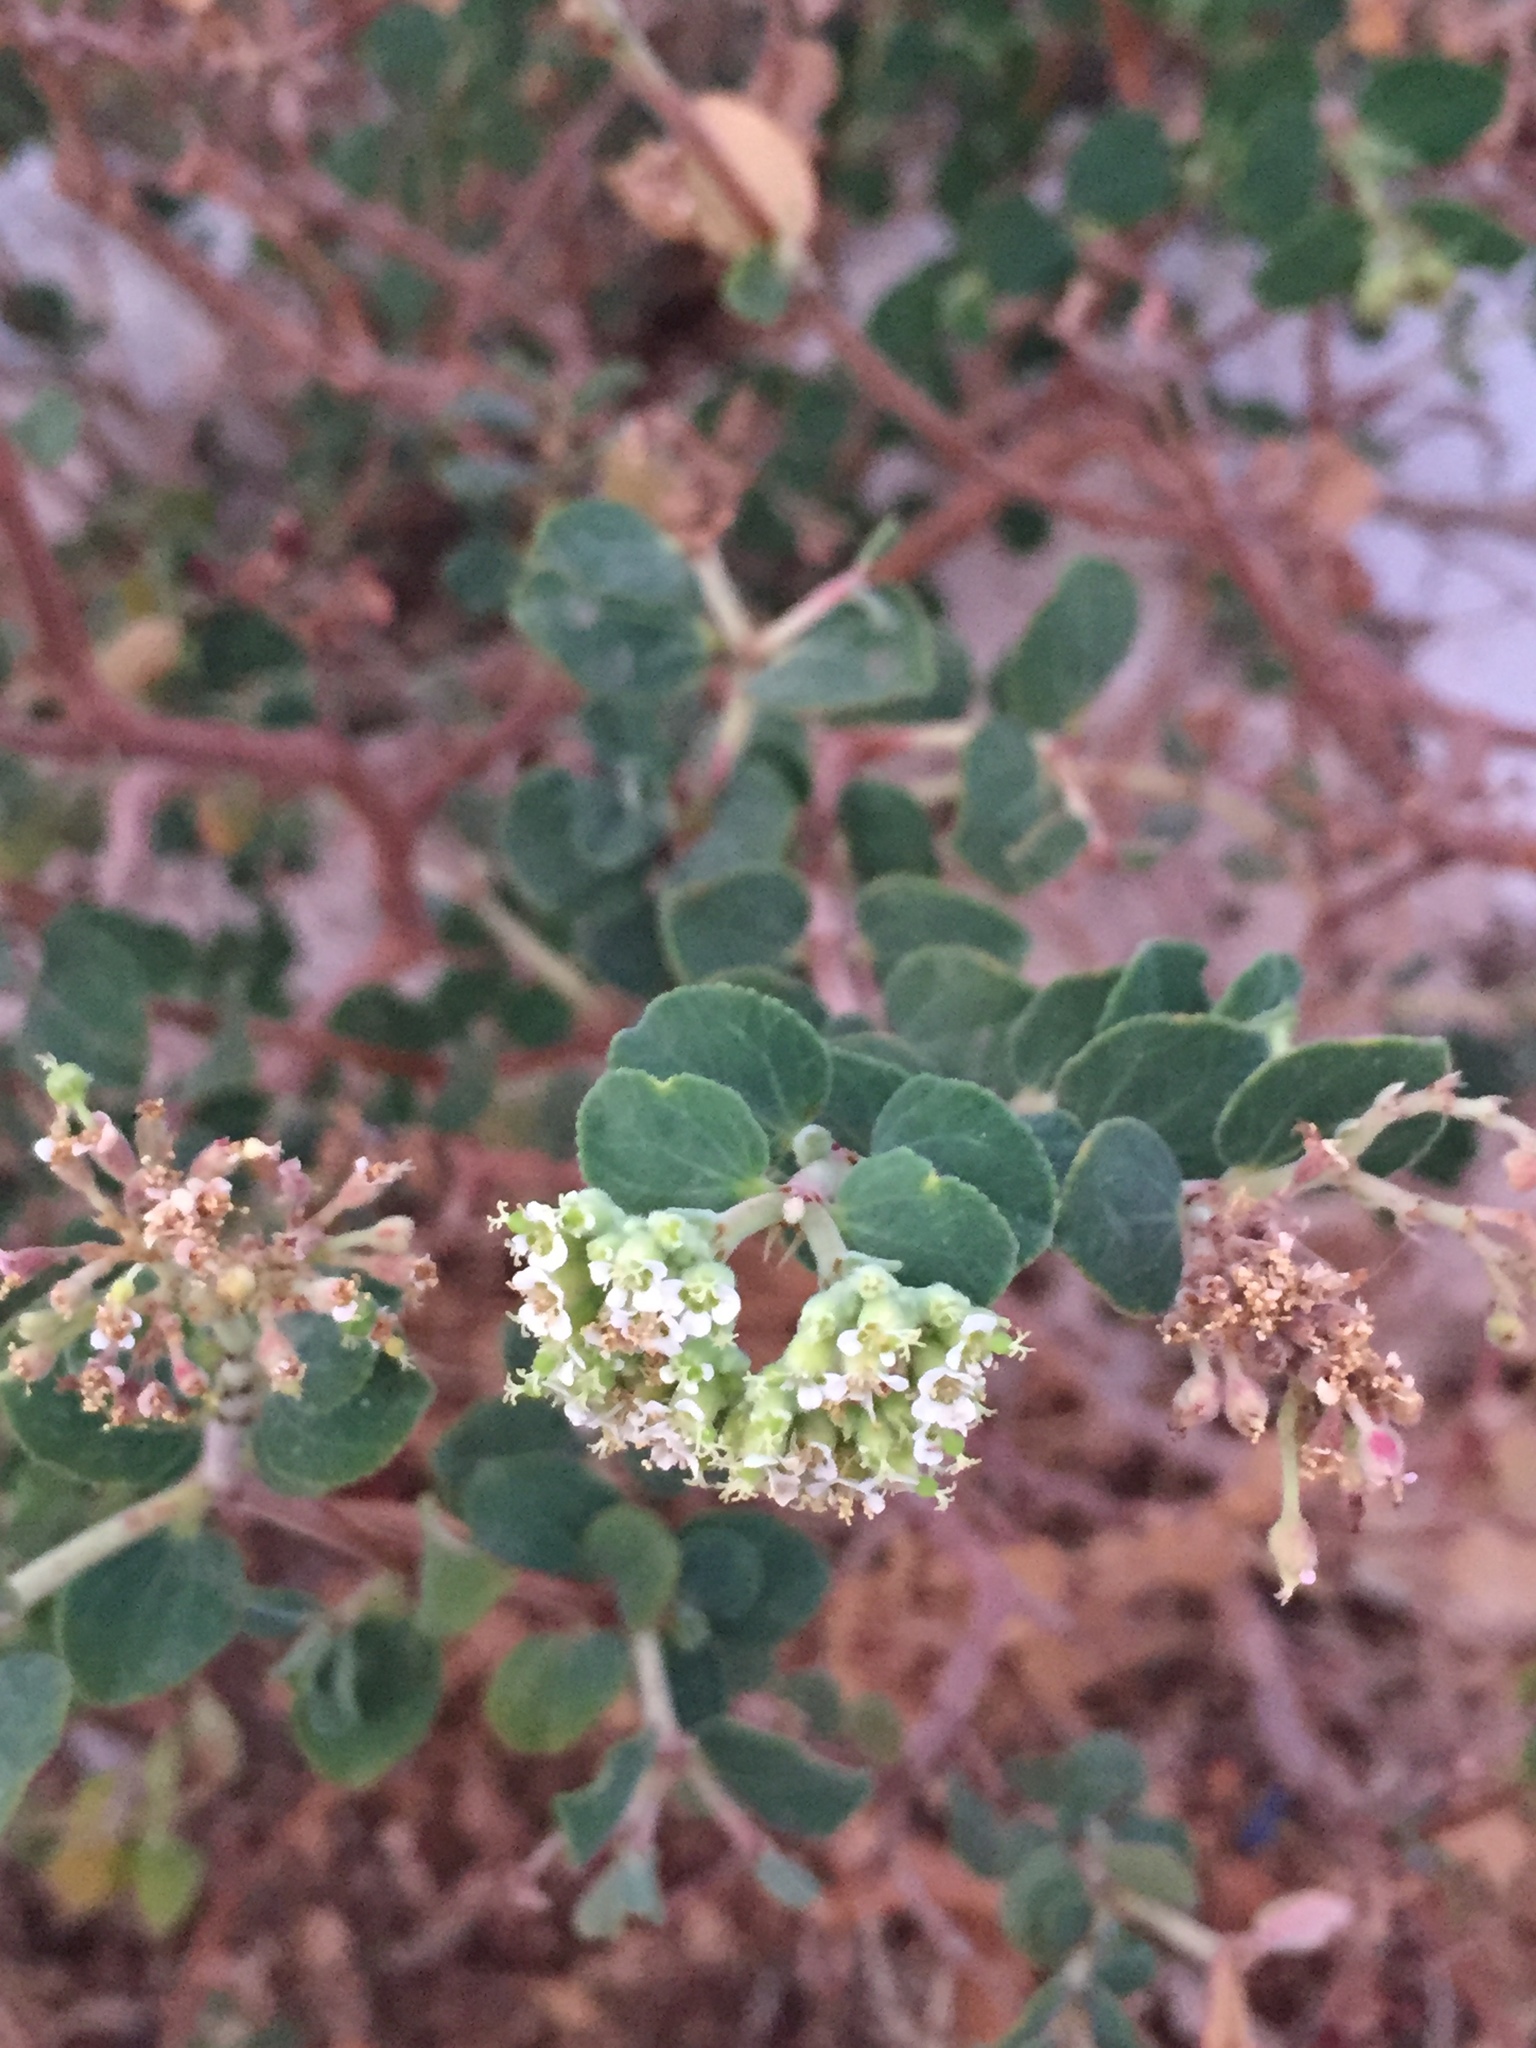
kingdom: Plantae
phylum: Tracheophyta
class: Magnoliopsida
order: Malpighiales
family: Euphorbiaceae
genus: Euphorbia
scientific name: Euphorbia tomentulosa
